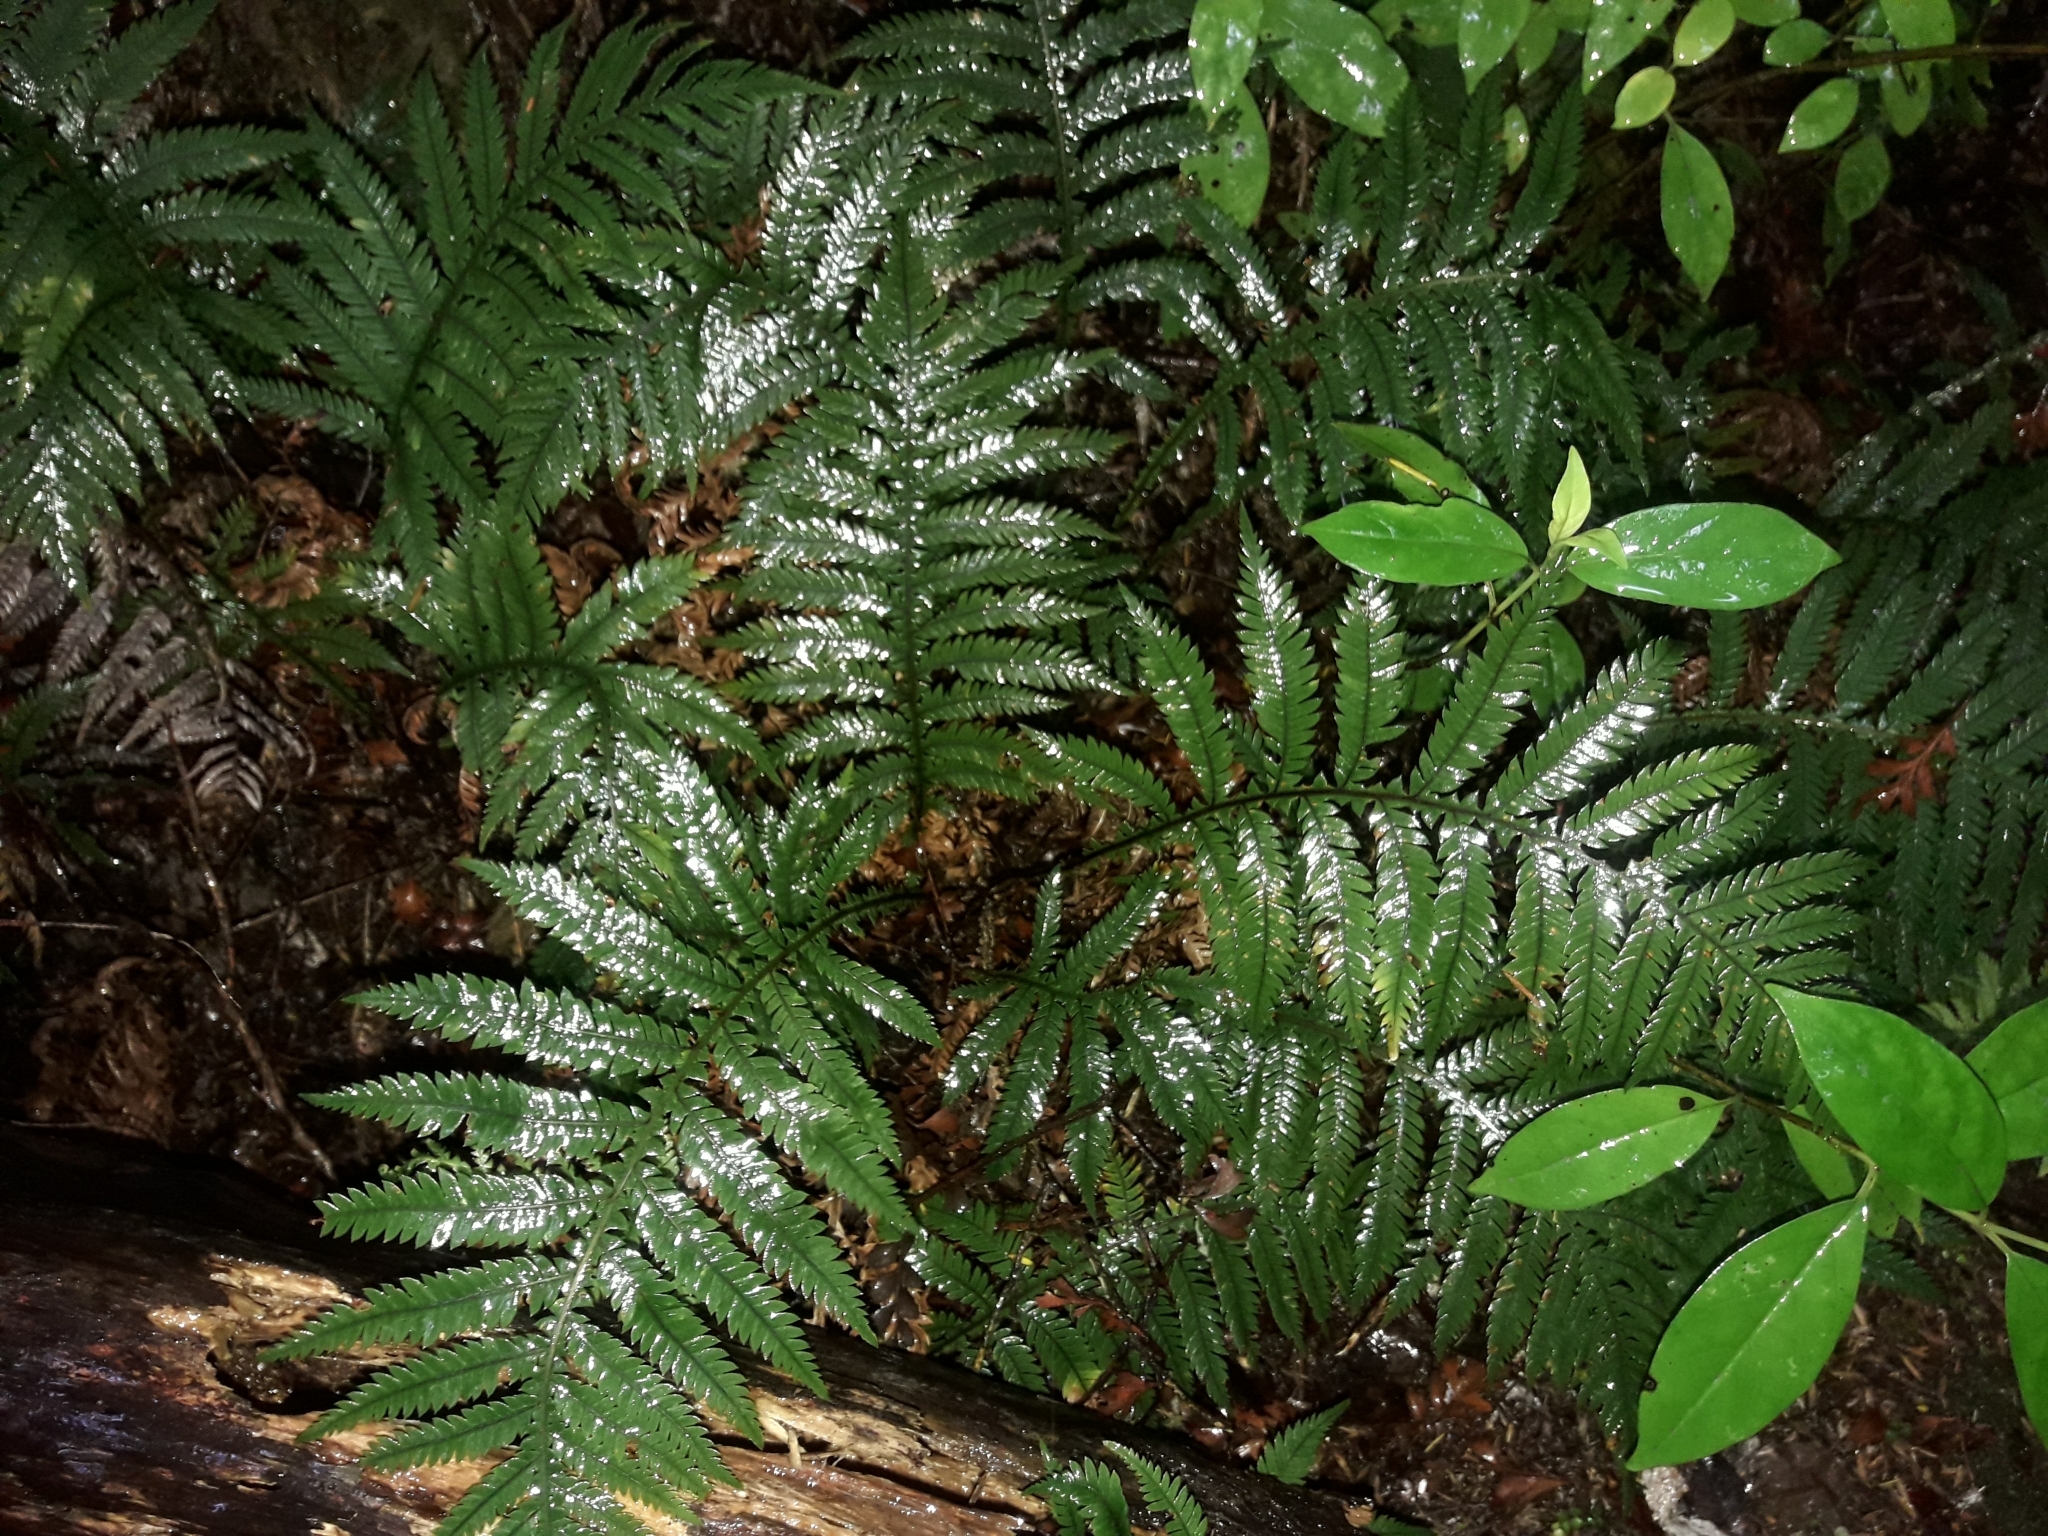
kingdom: Plantae
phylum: Tracheophyta
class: Polypodiopsida
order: Polypodiales
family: Blechnaceae
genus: Diploblechnum
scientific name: Diploblechnum fraseri
